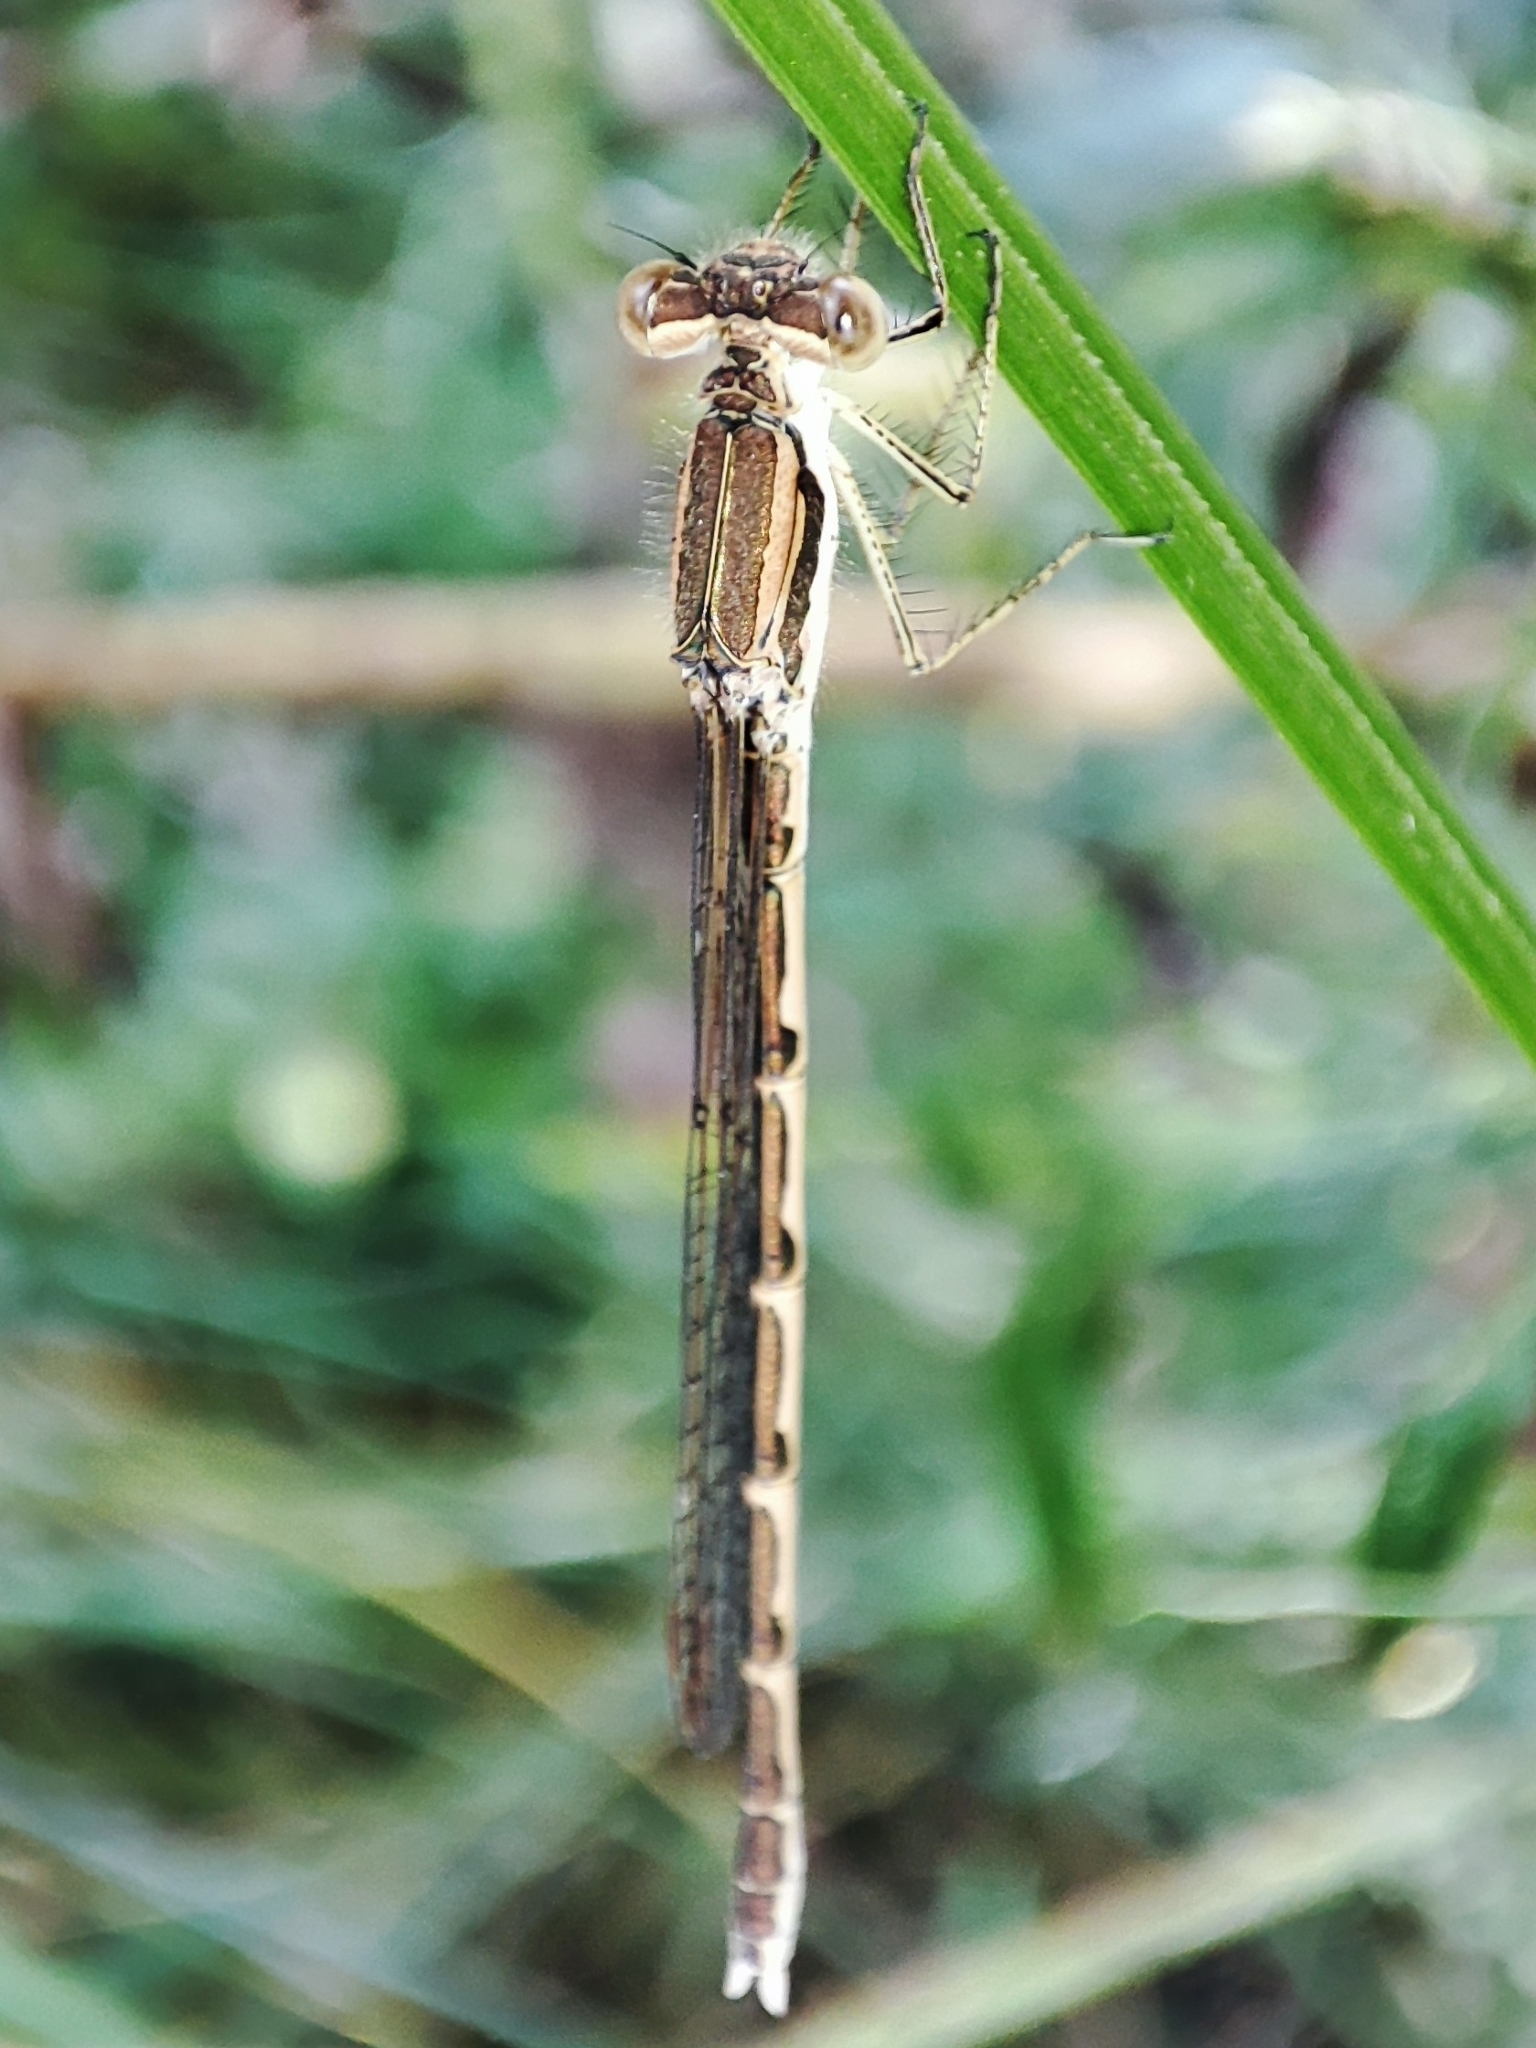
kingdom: Animalia
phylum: Arthropoda
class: Insecta
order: Odonata
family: Lestidae
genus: Sympecma
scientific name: Sympecma fusca
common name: Common winter damsel
